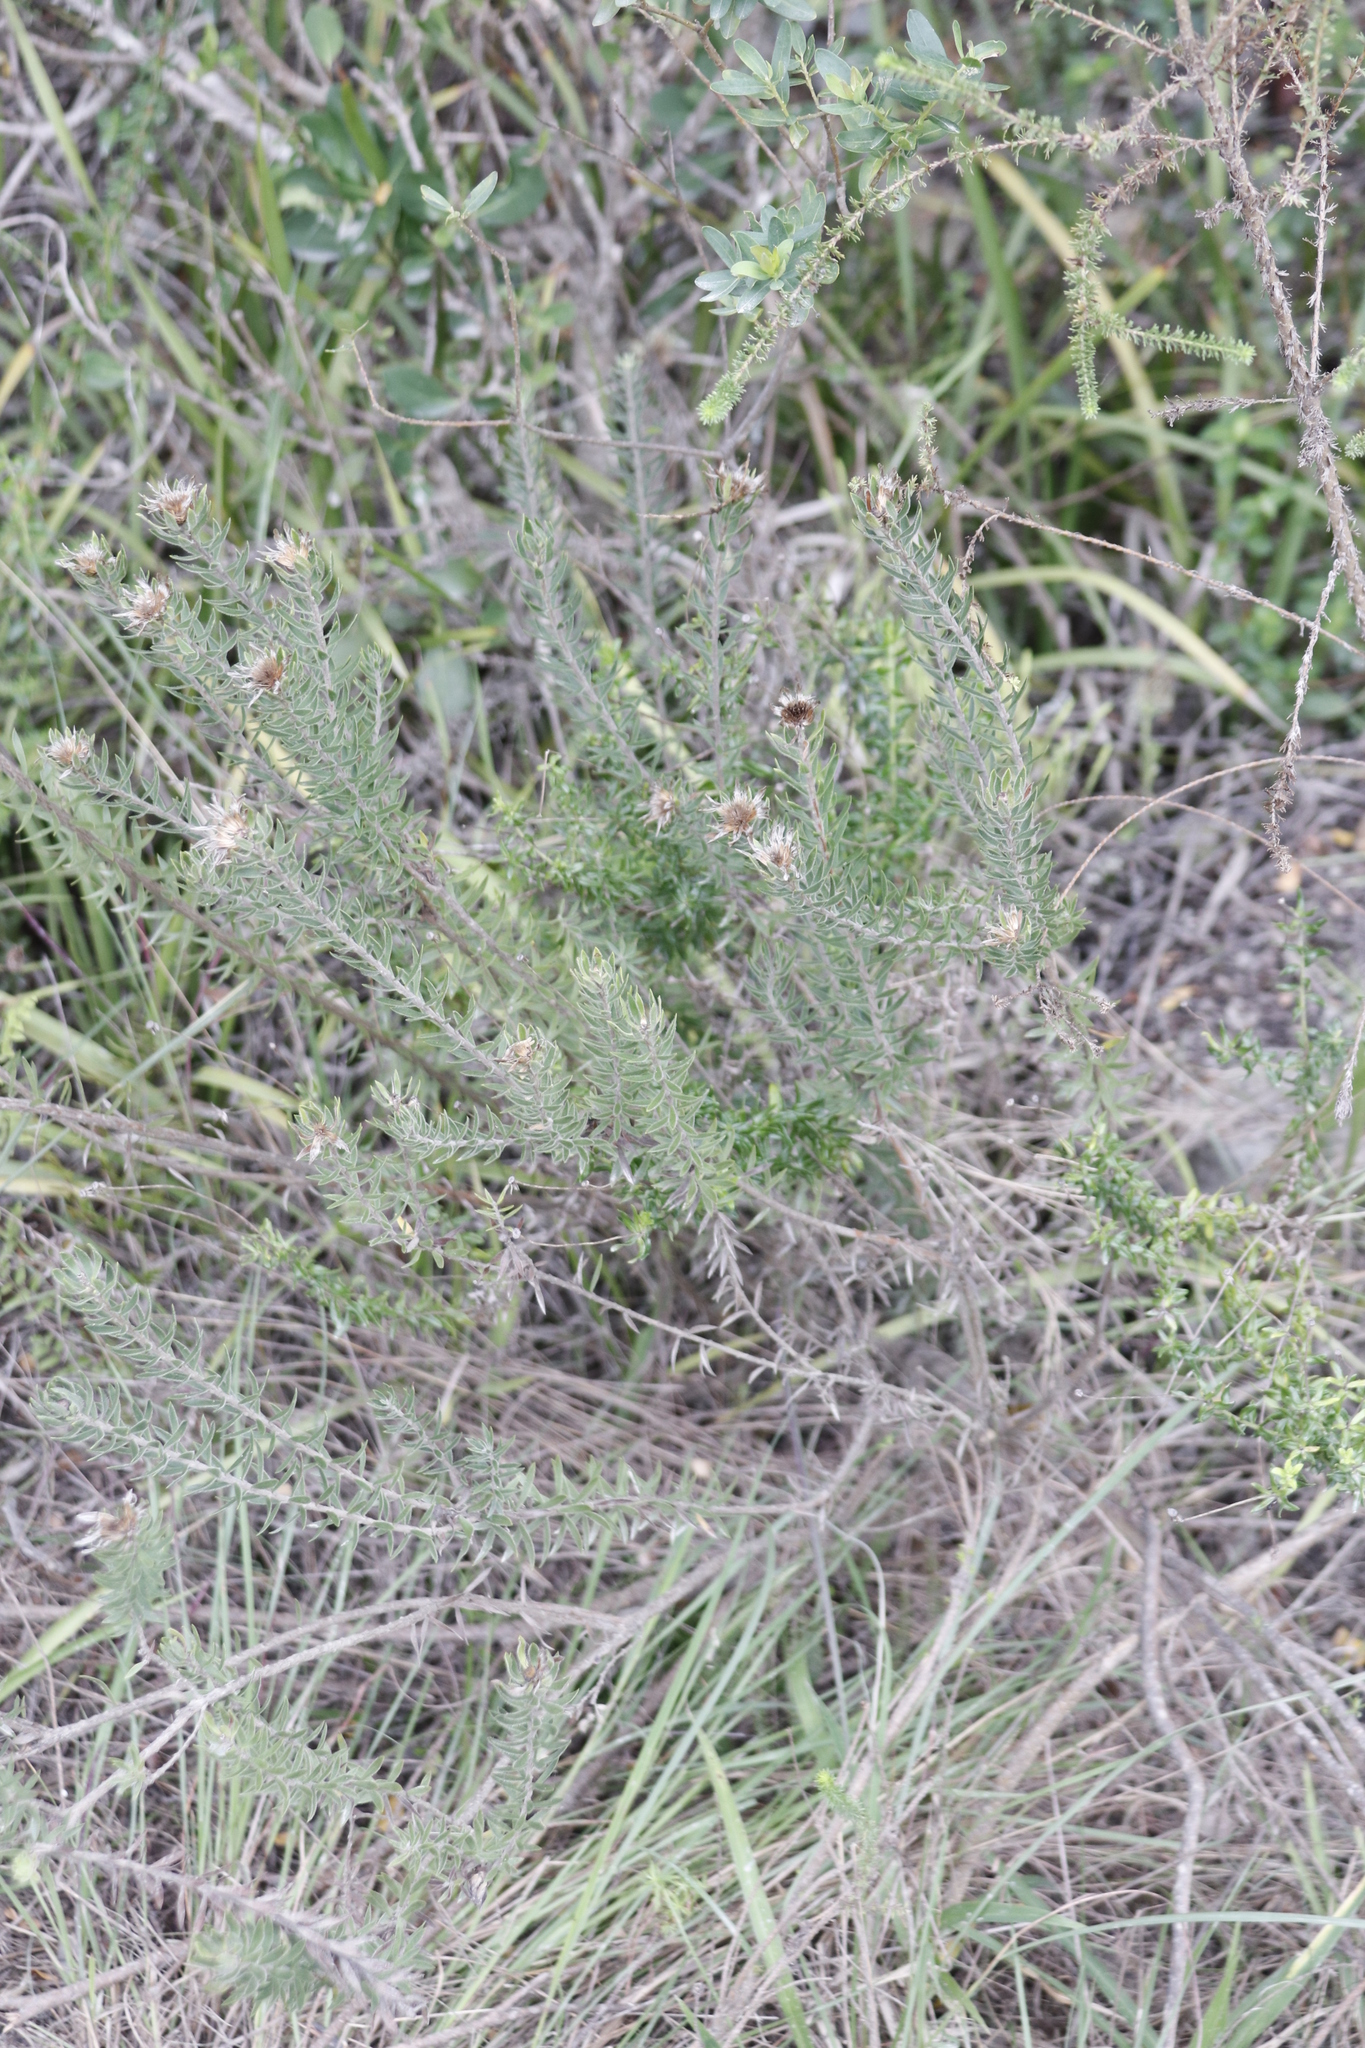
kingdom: Plantae
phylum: Tracheophyta
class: Magnoliopsida
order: Asterales
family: Asteraceae
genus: Oedera
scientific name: Oedera calycina
